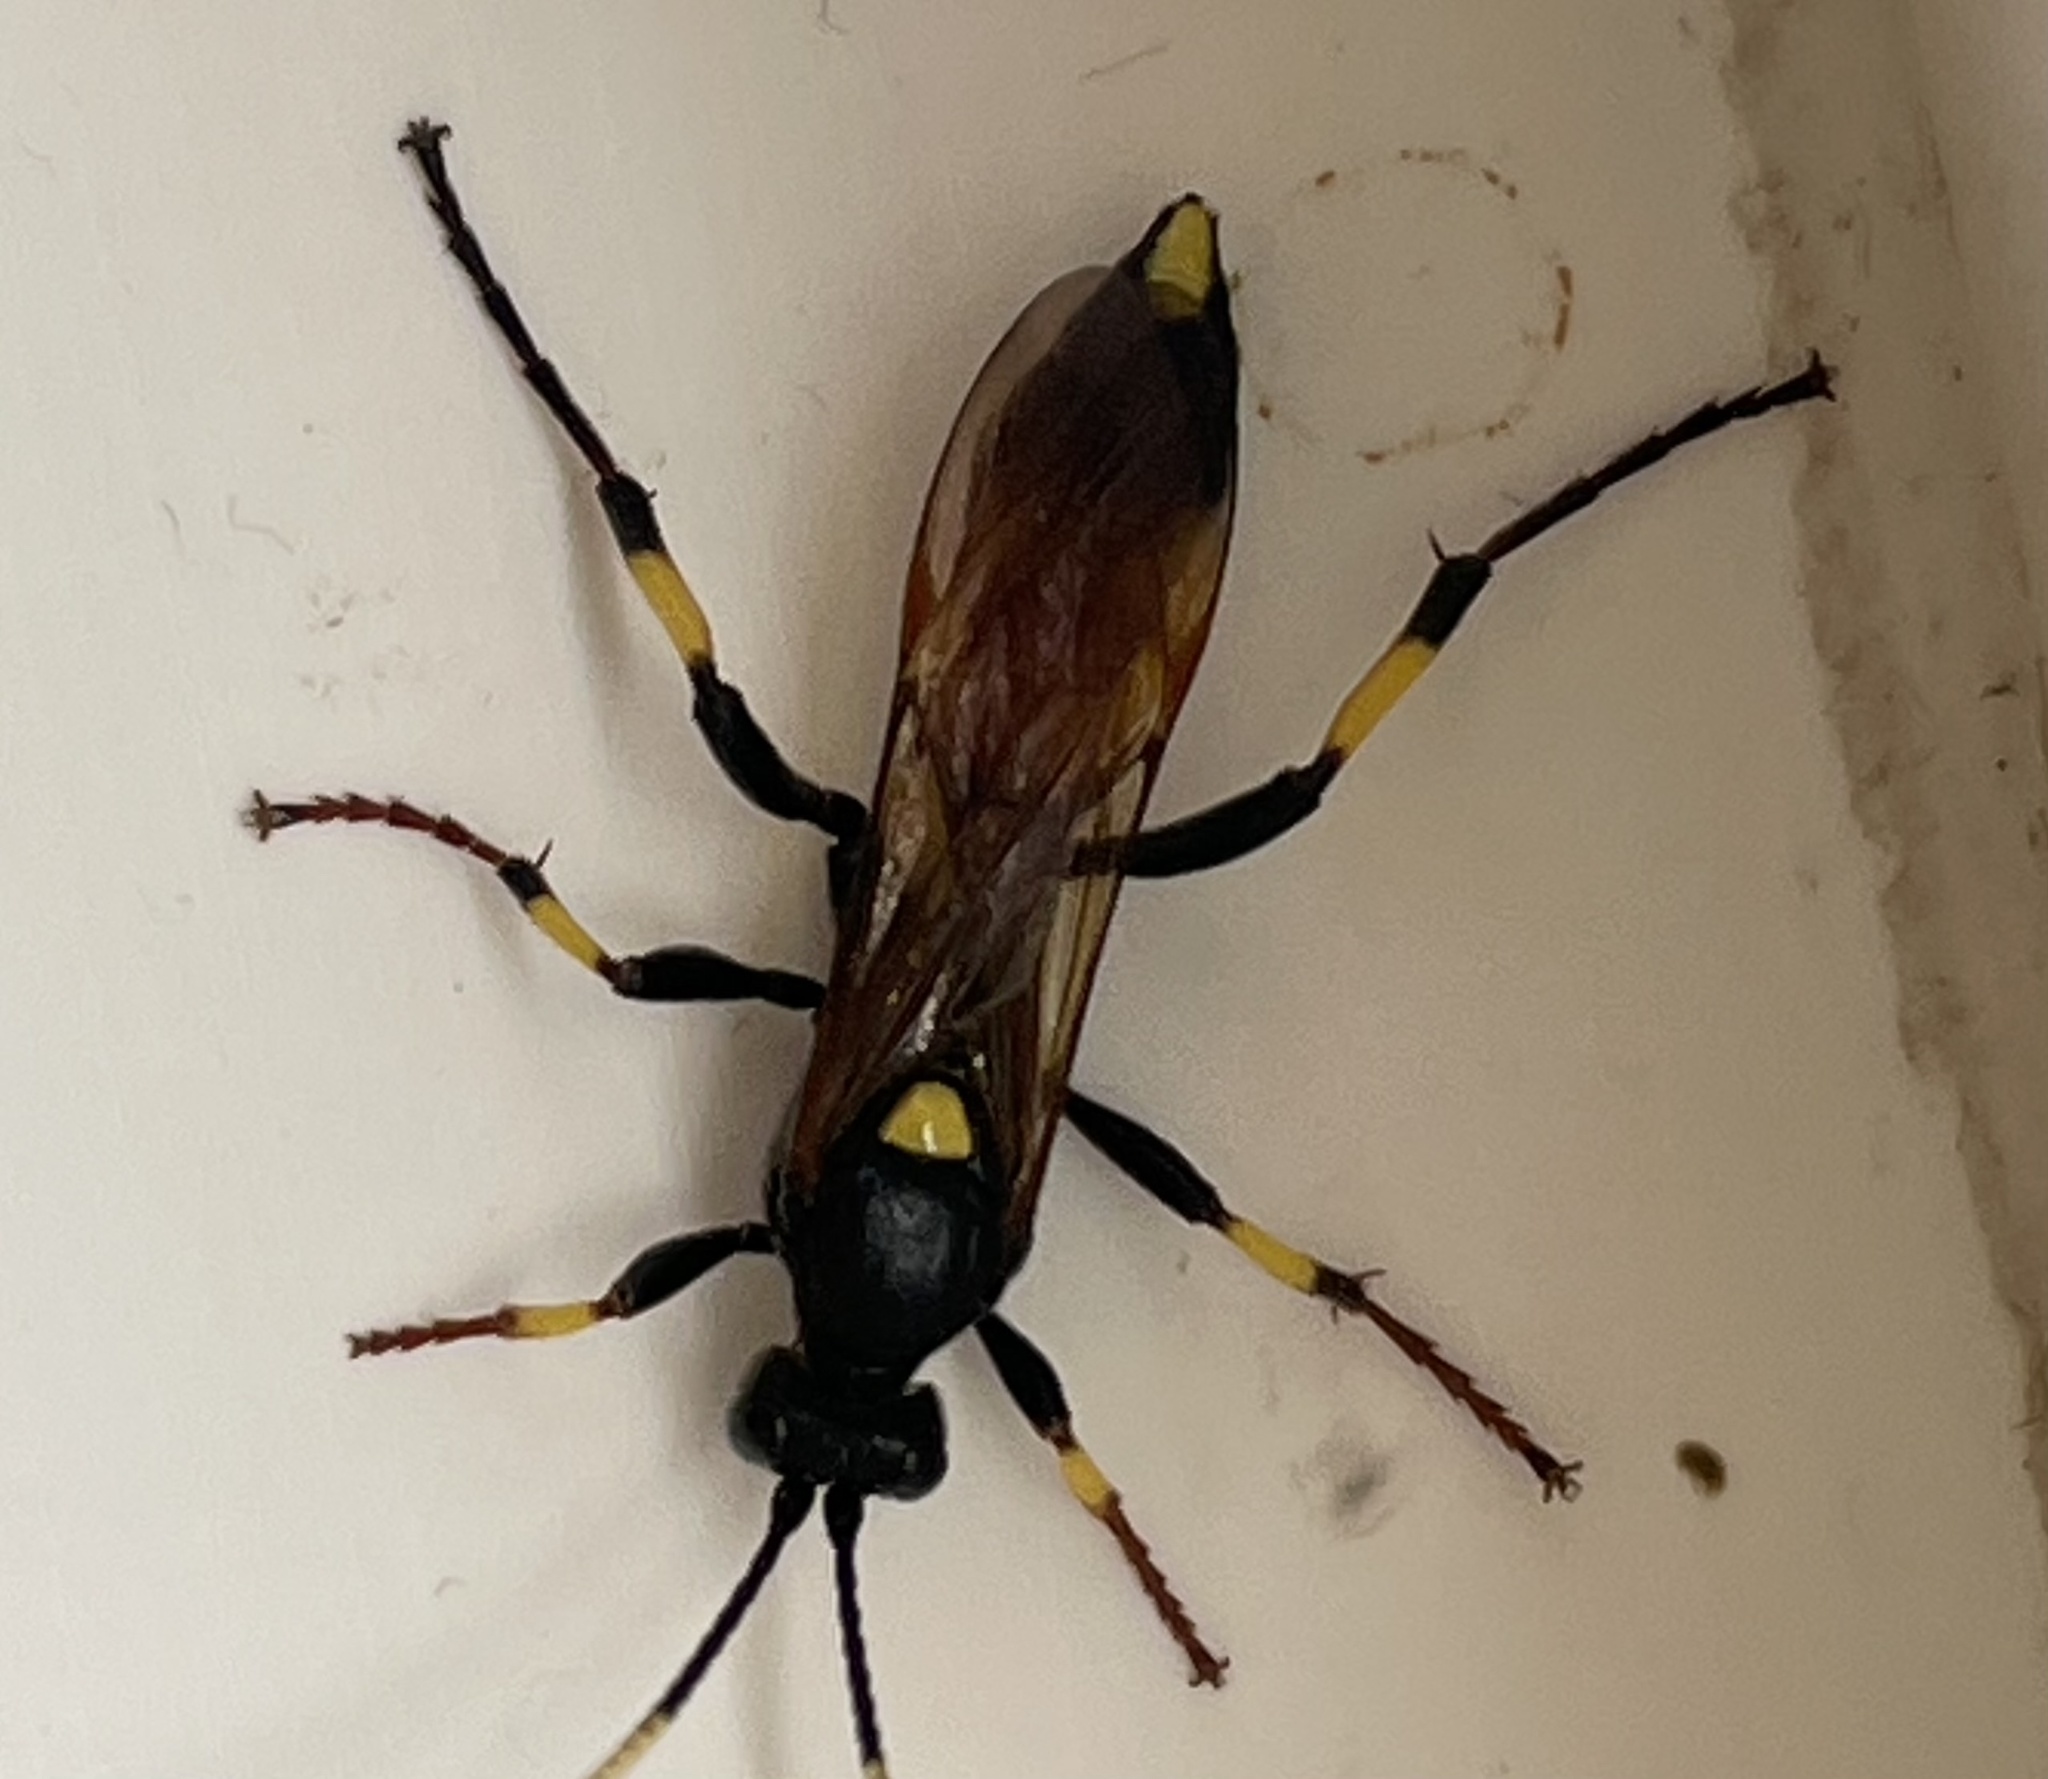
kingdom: Animalia
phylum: Arthropoda
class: Insecta
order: Hymenoptera
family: Ichneumonidae
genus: Ichneumon
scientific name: Ichneumon stramentor
